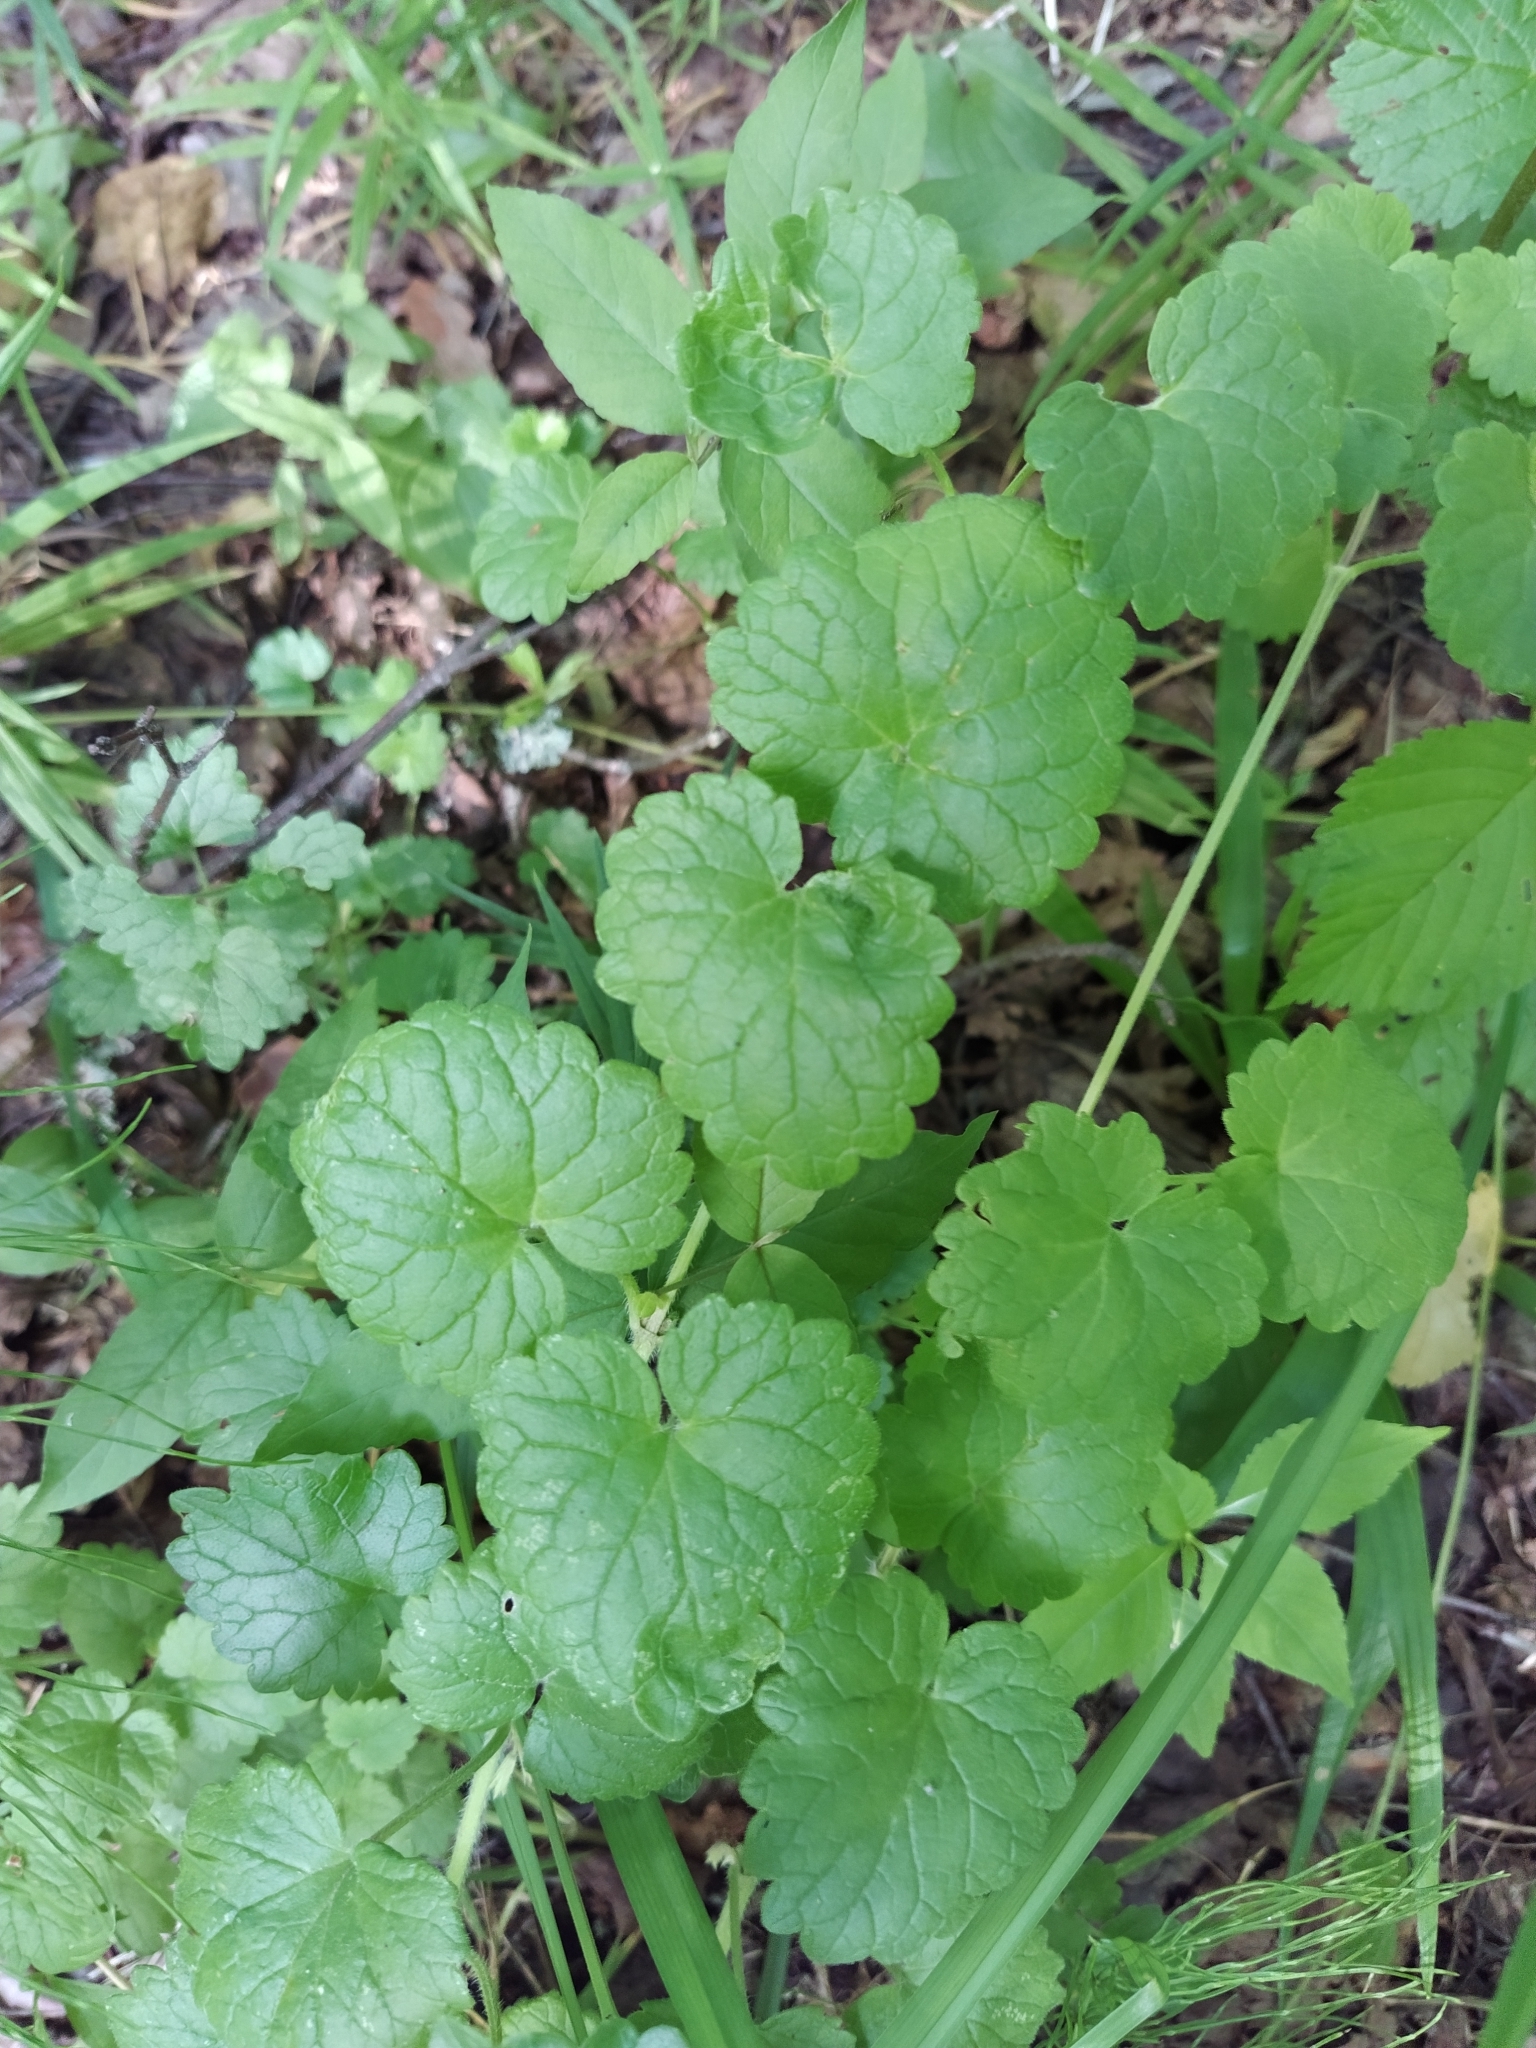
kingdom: Plantae
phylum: Tracheophyta
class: Magnoliopsida
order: Lamiales
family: Lamiaceae
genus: Glechoma
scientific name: Glechoma hederacea
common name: Ground ivy
